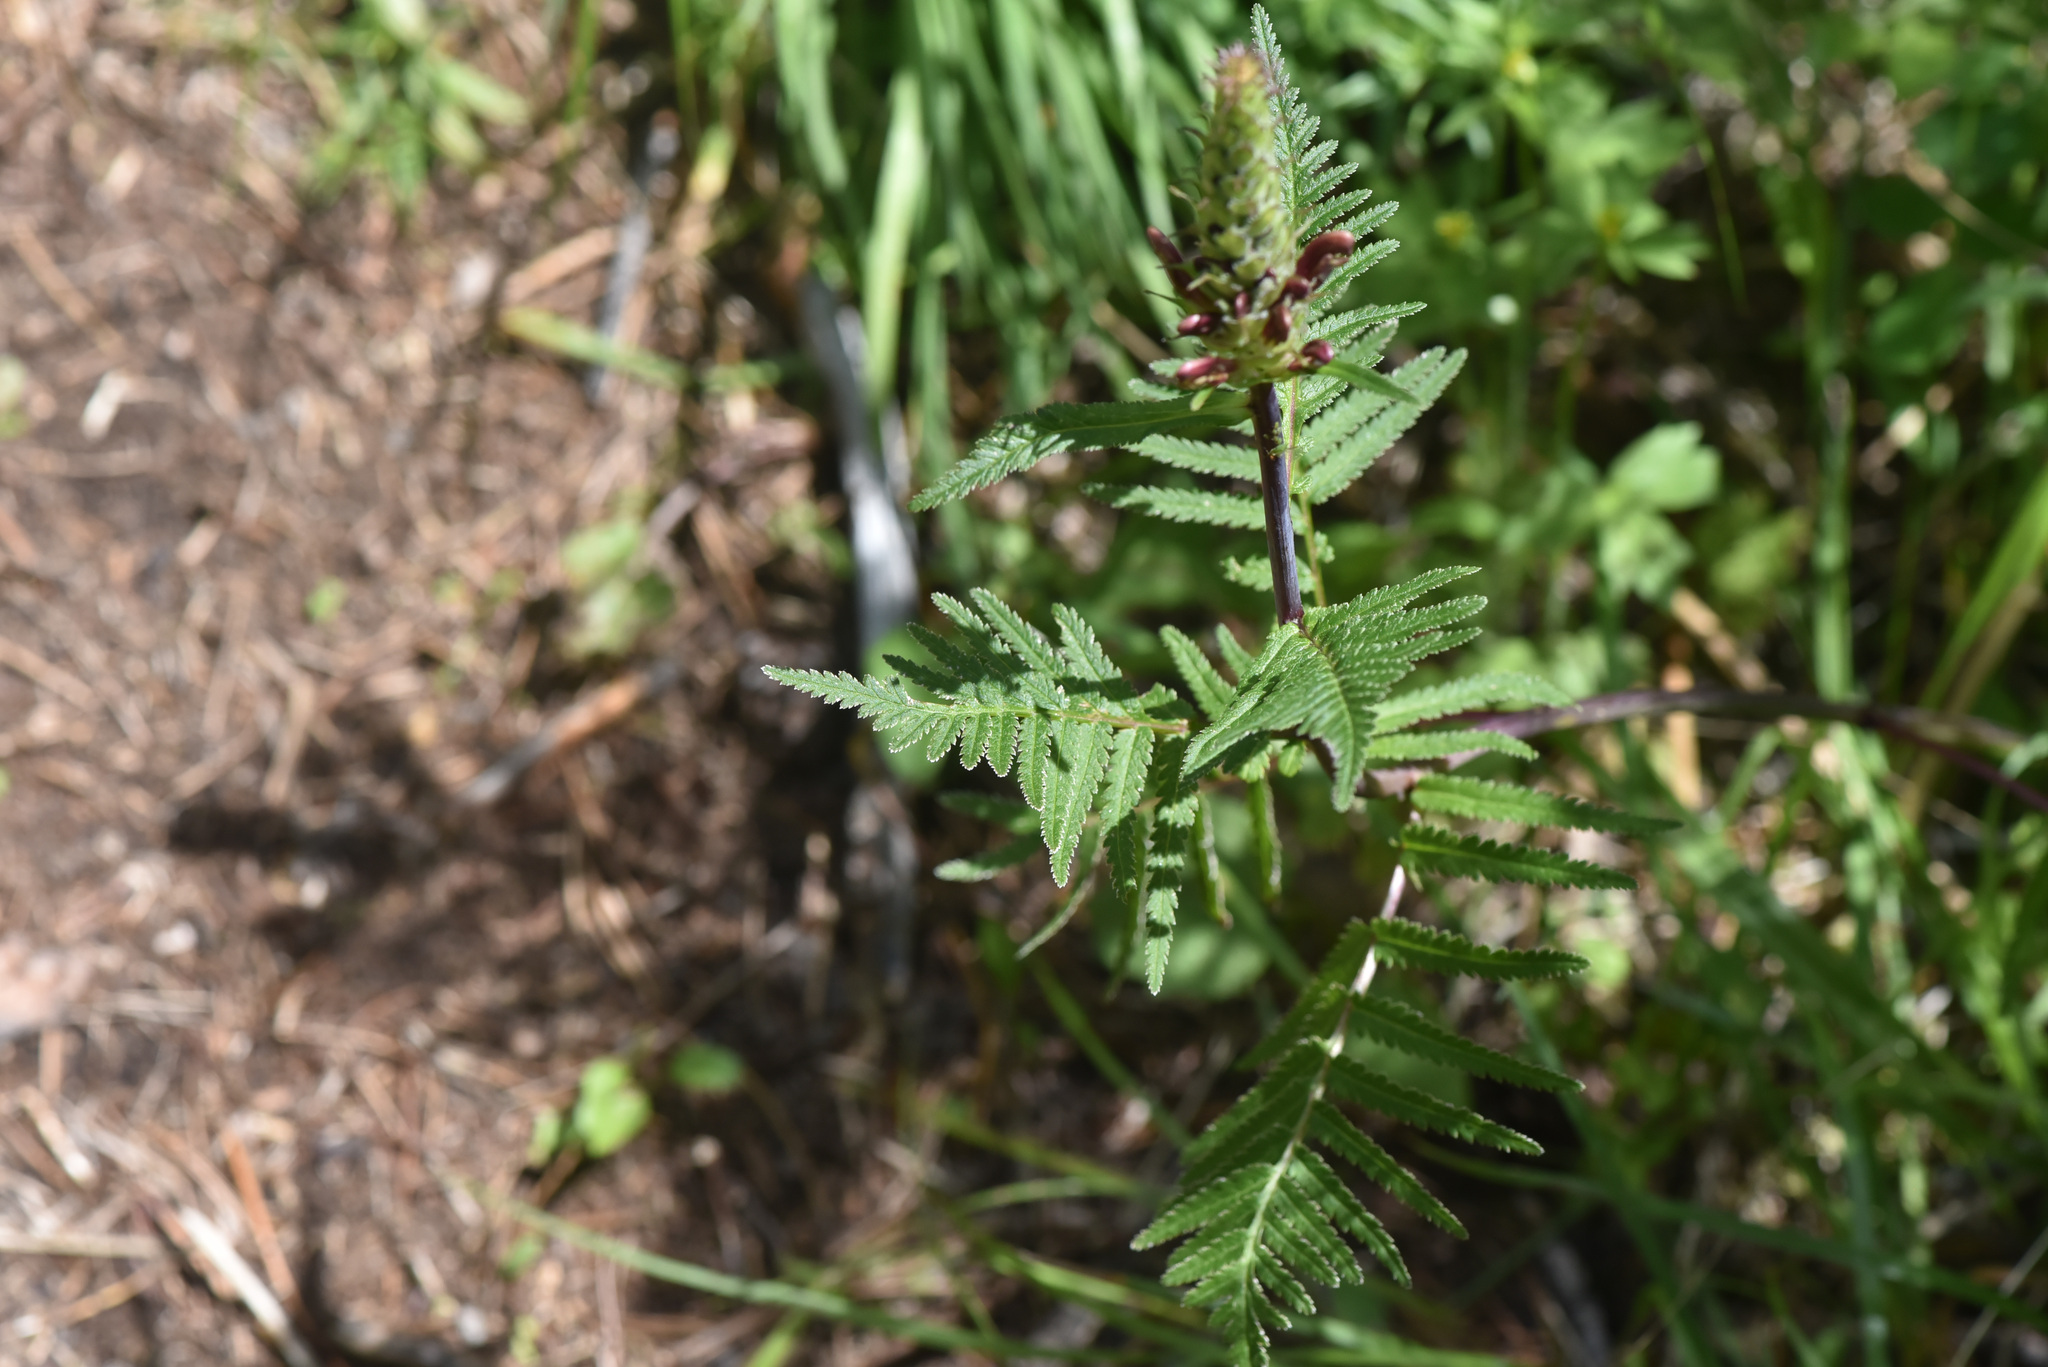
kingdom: Plantae
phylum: Tracheophyta
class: Magnoliopsida
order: Lamiales
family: Orobanchaceae
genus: Pedicularis
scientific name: Pedicularis bracteosa
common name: Bracted lousewort
